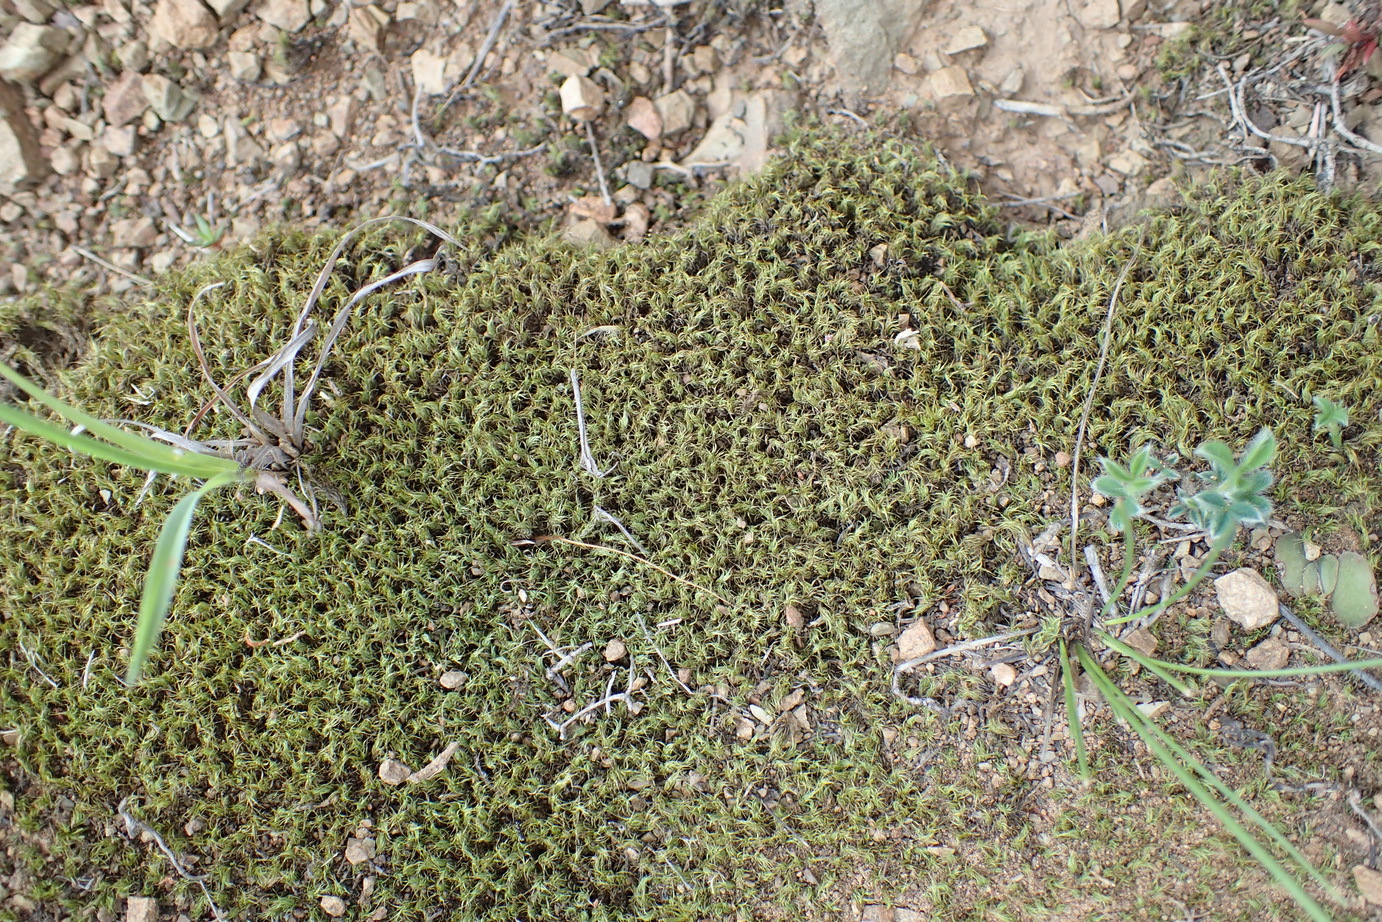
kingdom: Plantae
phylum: Bryophyta
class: Bryopsida
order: Pottiales
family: Pottiaceae
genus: Pseudocrossidium
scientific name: Pseudocrossidium crinitum
